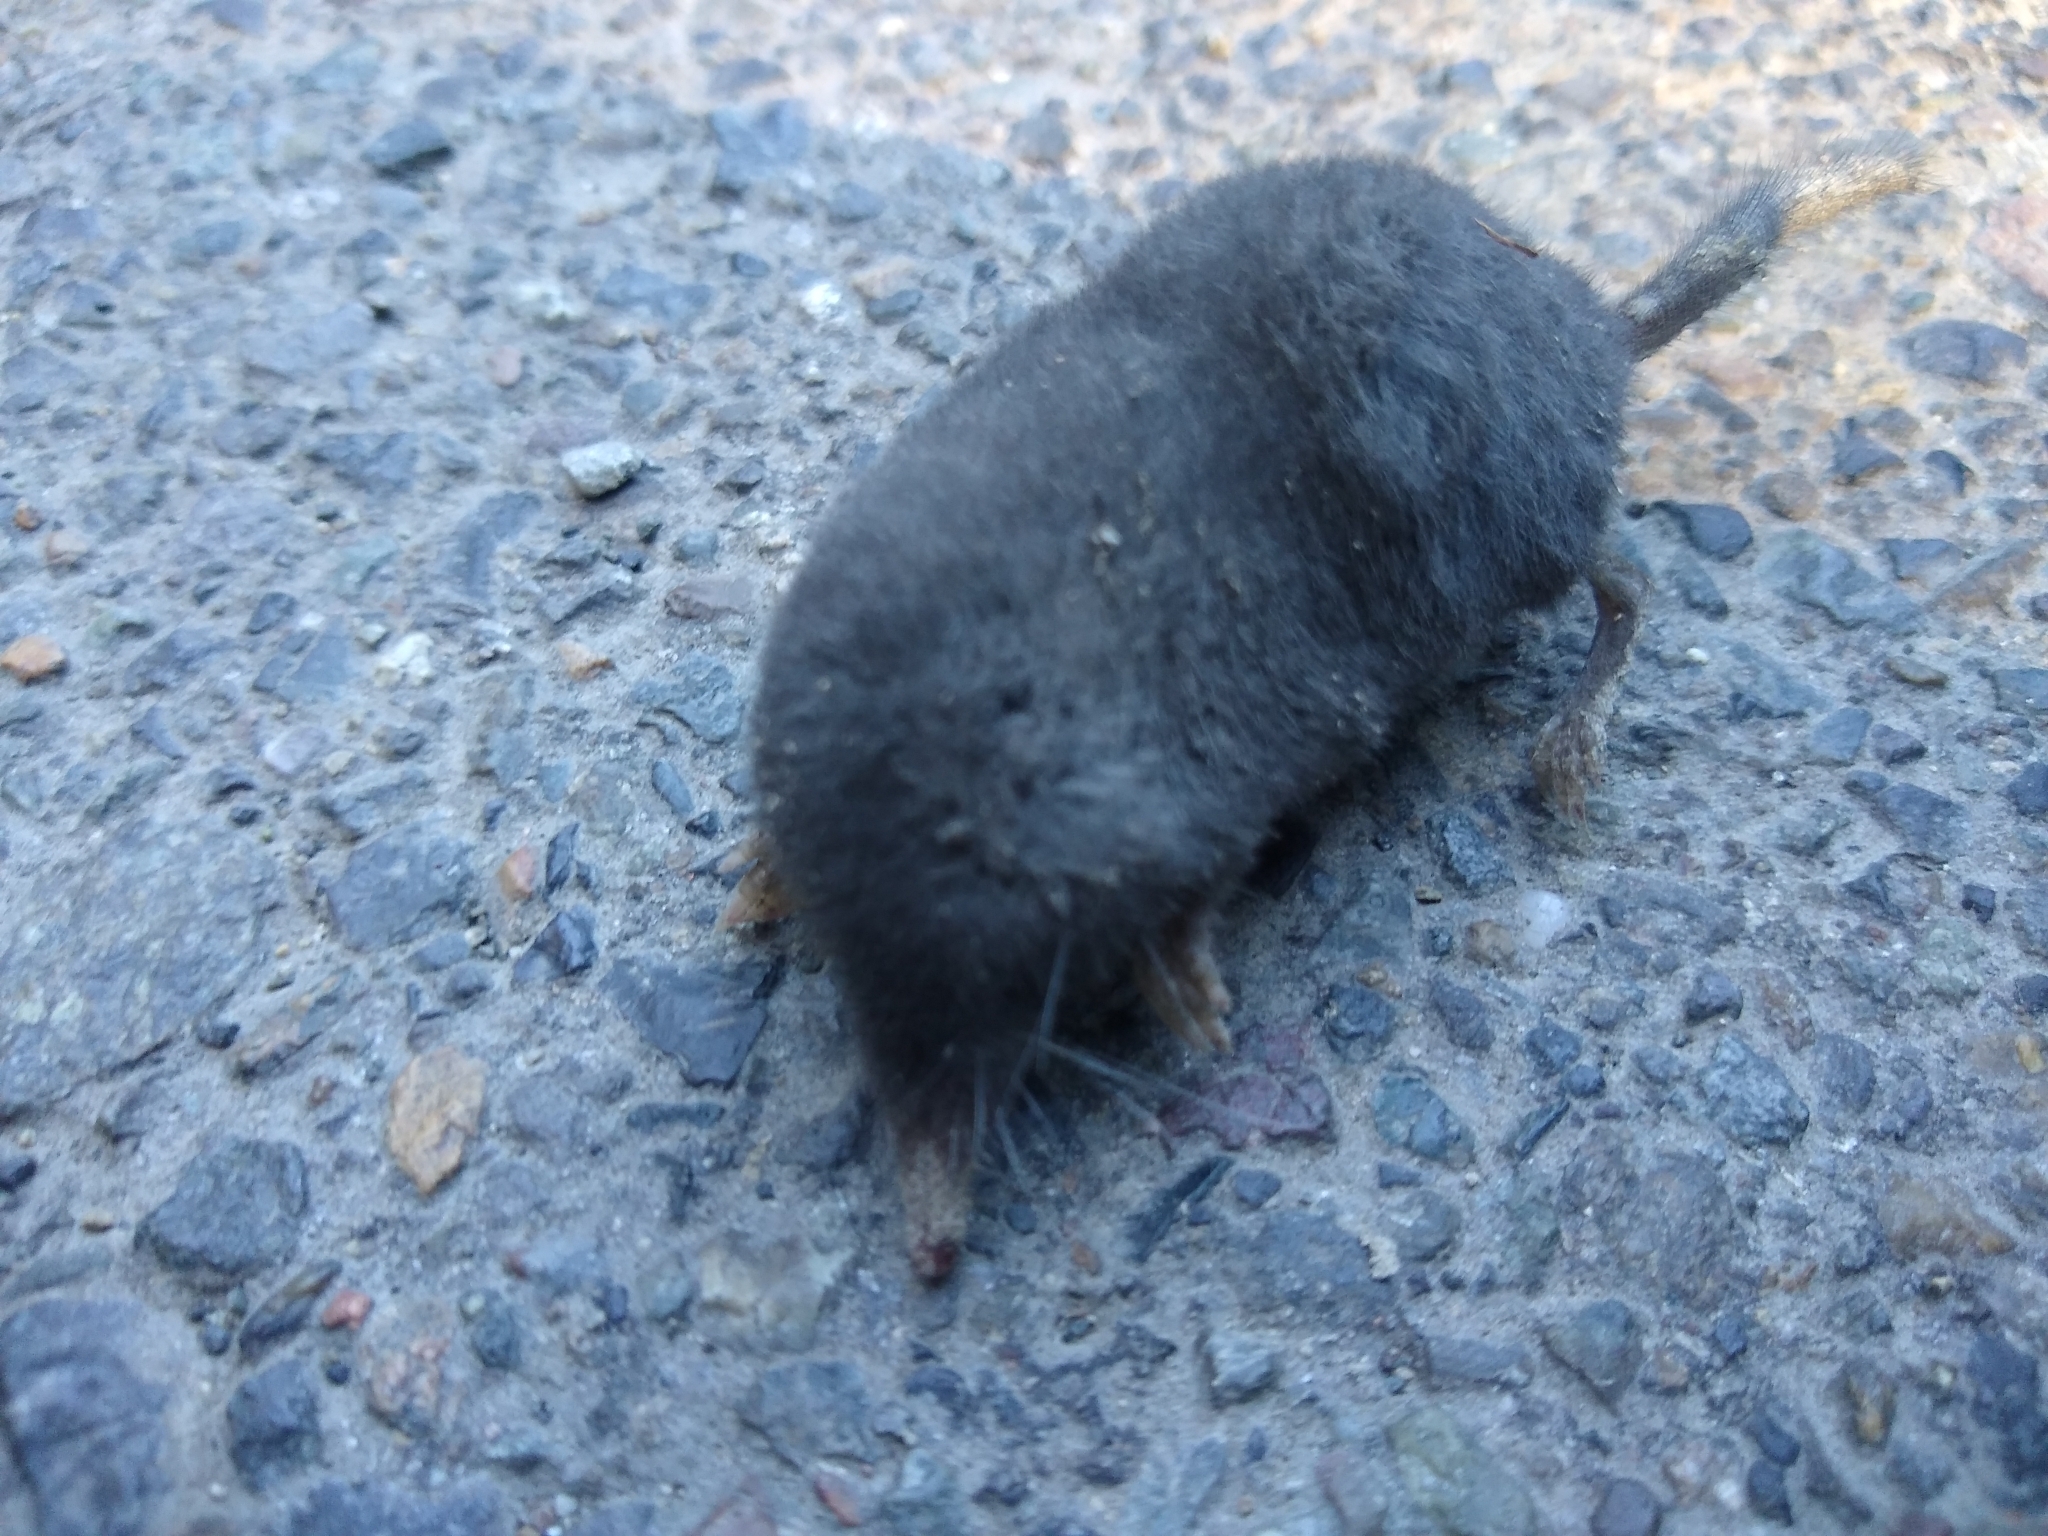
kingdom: Animalia
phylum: Chordata
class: Mammalia
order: Soricomorpha
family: Talpidae
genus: Neurotrichus
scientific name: Neurotrichus gibbsii
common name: American shrew mole
